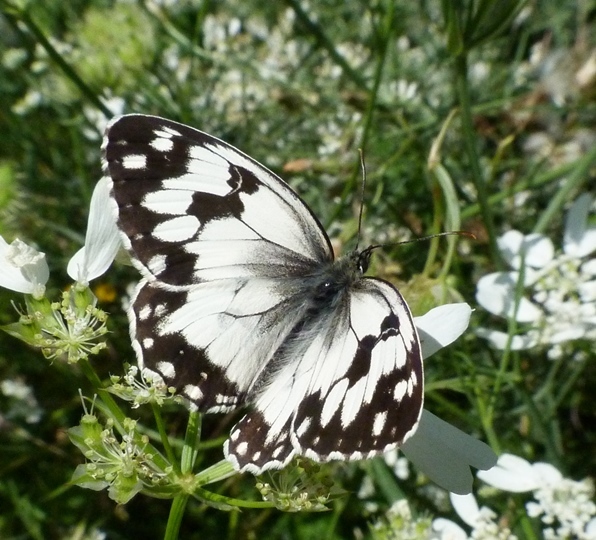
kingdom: Animalia
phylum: Arthropoda
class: Insecta
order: Lepidoptera
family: Nymphalidae
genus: Melanargia
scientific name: Melanargia lachesis
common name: Iberian marbled white
